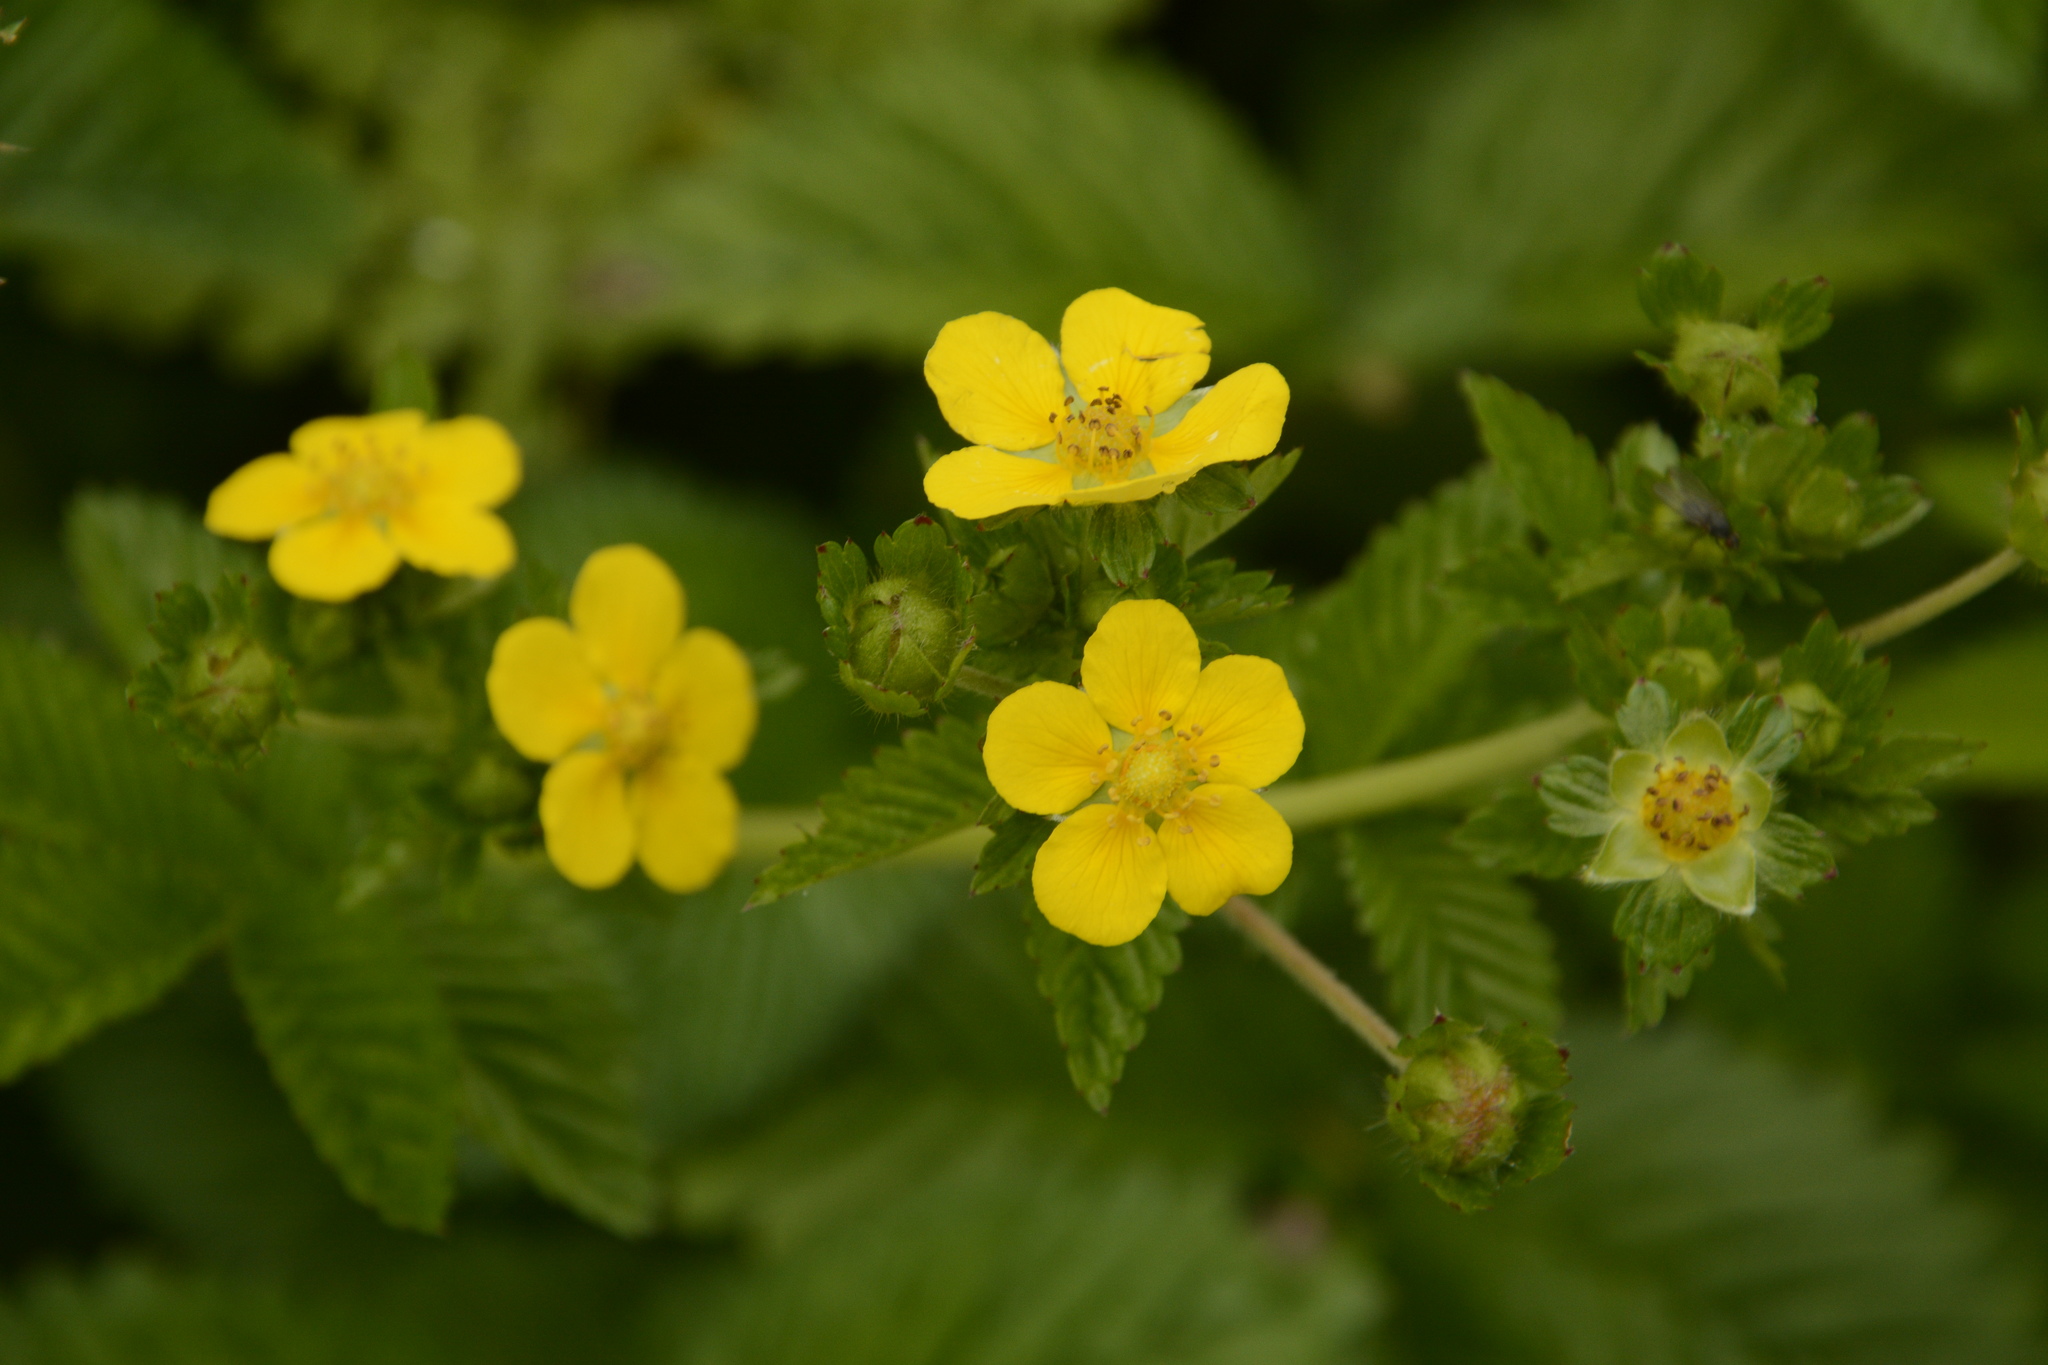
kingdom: Plantae
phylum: Tracheophyta
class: Magnoliopsida
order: Rosales
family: Rosaceae
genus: Argentina
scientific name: Argentina polyphylla
